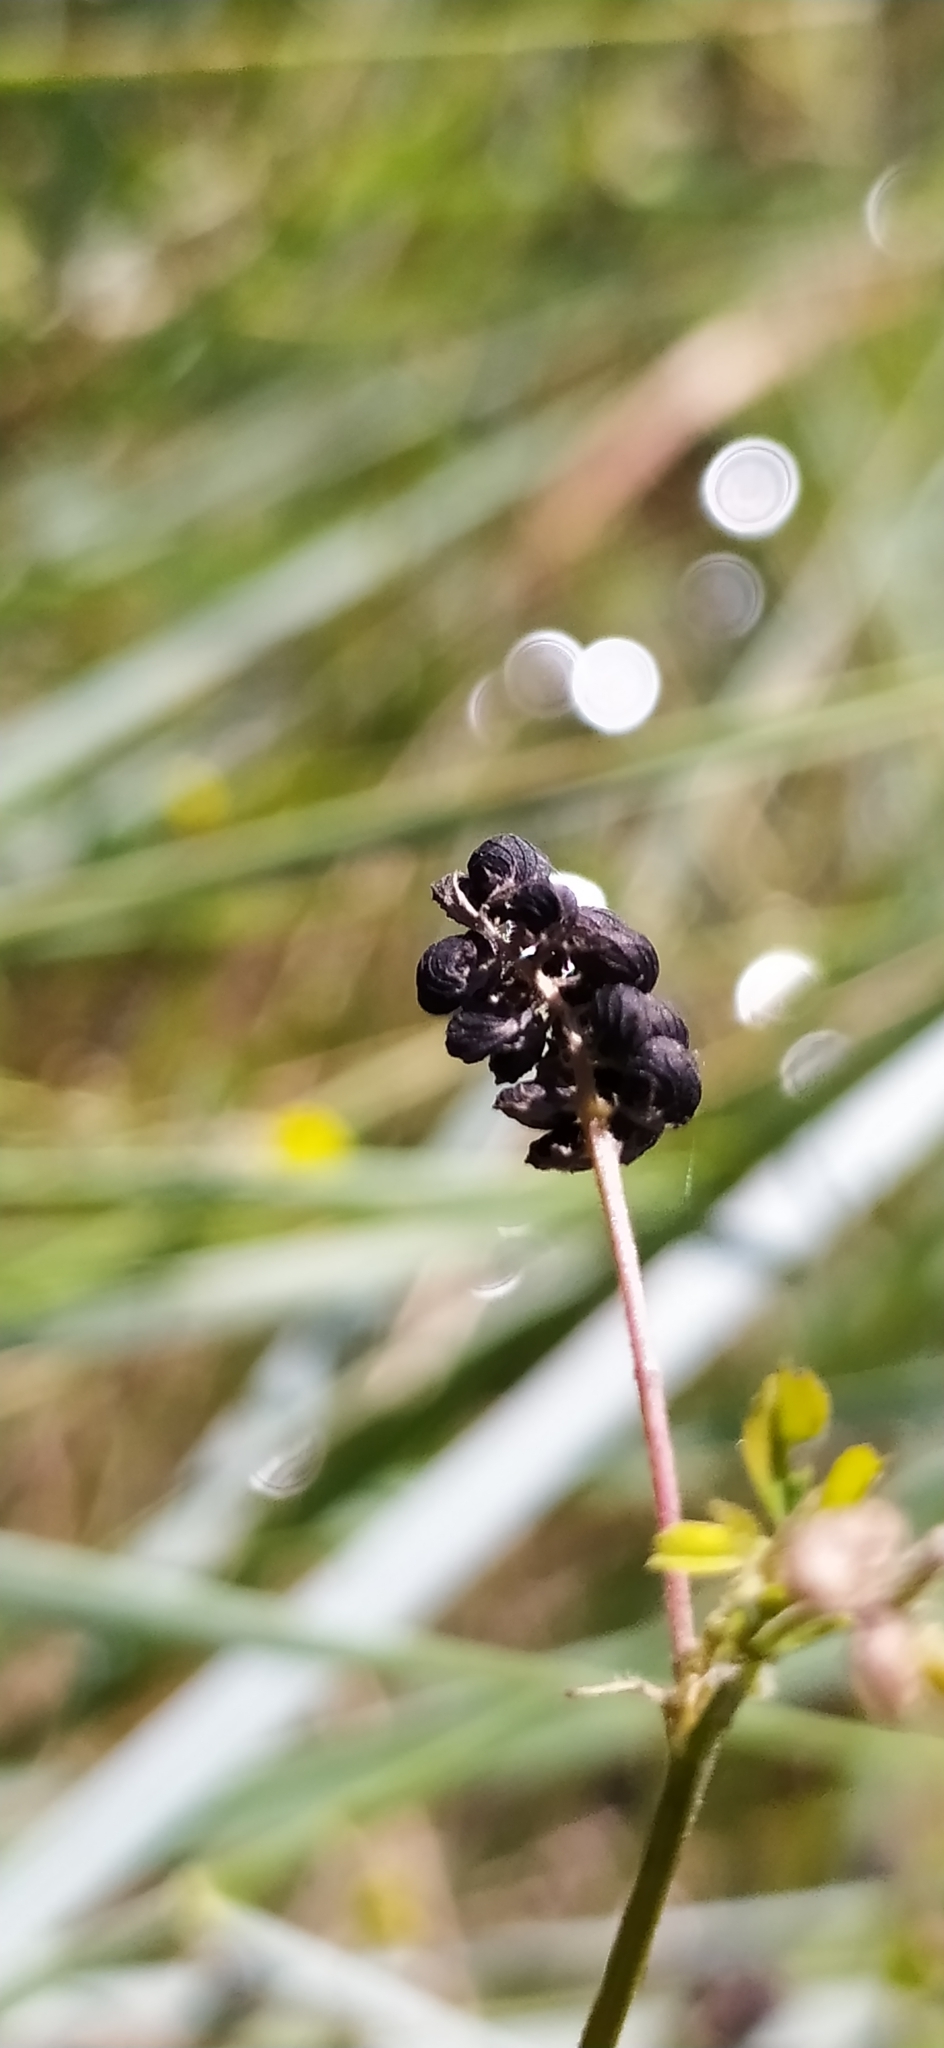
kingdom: Plantae
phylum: Tracheophyta
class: Magnoliopsida
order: Fabales
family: Fabaceae
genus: Medicago
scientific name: Medicago lupulina
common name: Black medick
